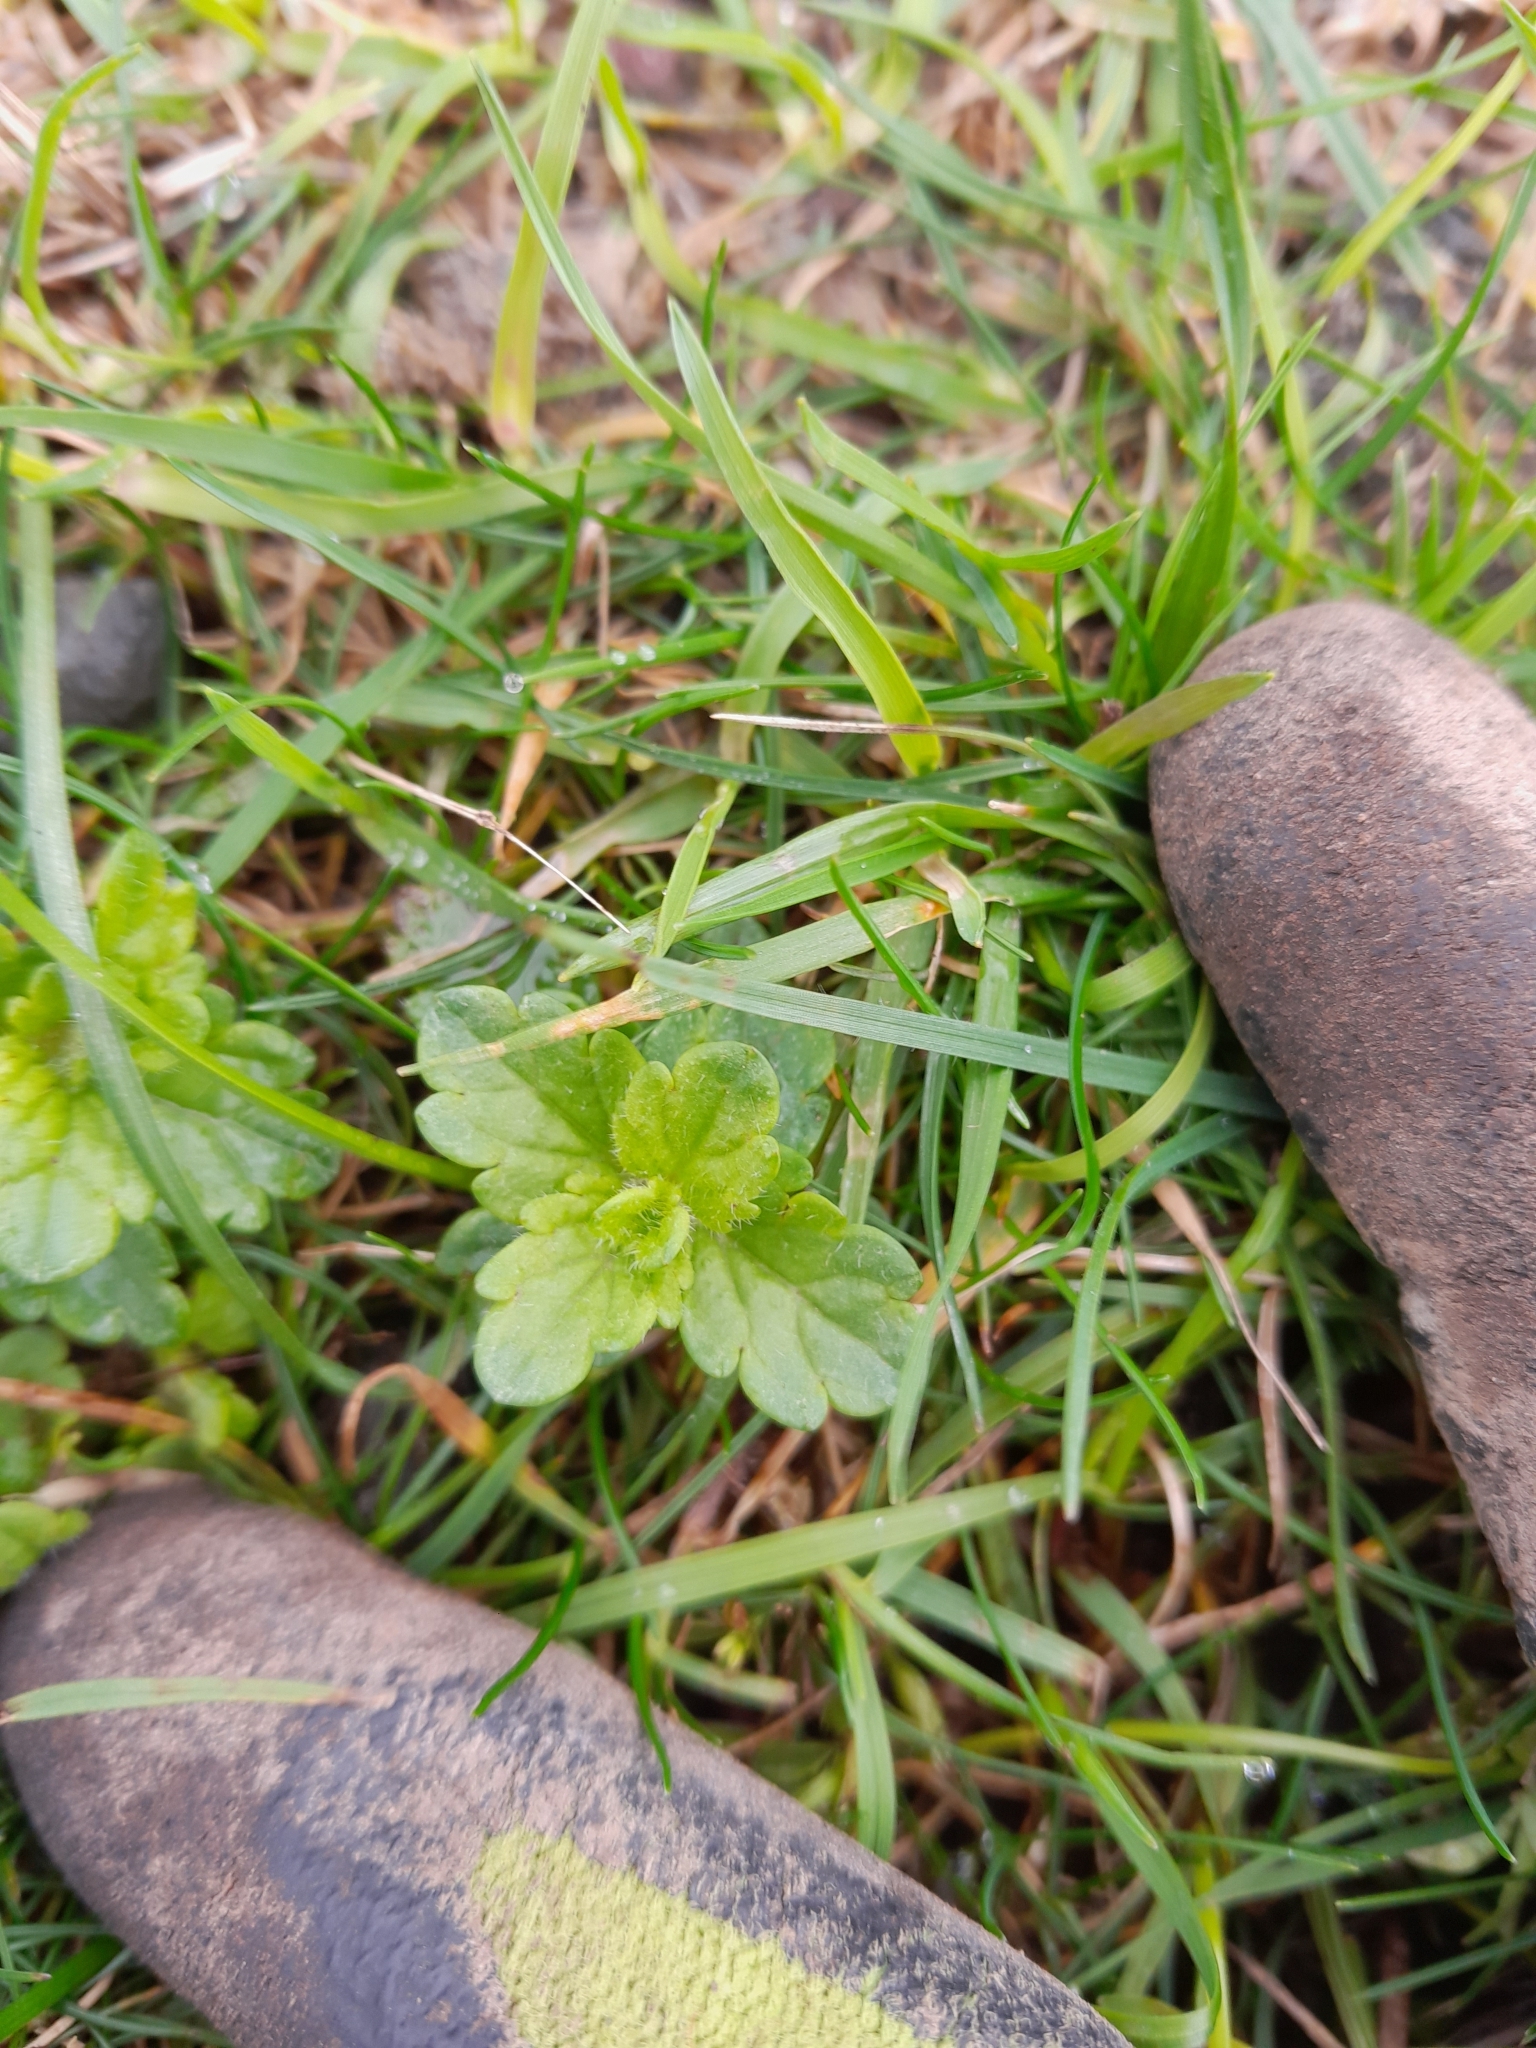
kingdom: Plantae
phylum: Tracheophyta
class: Magnoliopsida
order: Lamiales
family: Plantaginaceae
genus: Veronica
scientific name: Veronica chamaedrys
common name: Germander speedwell
